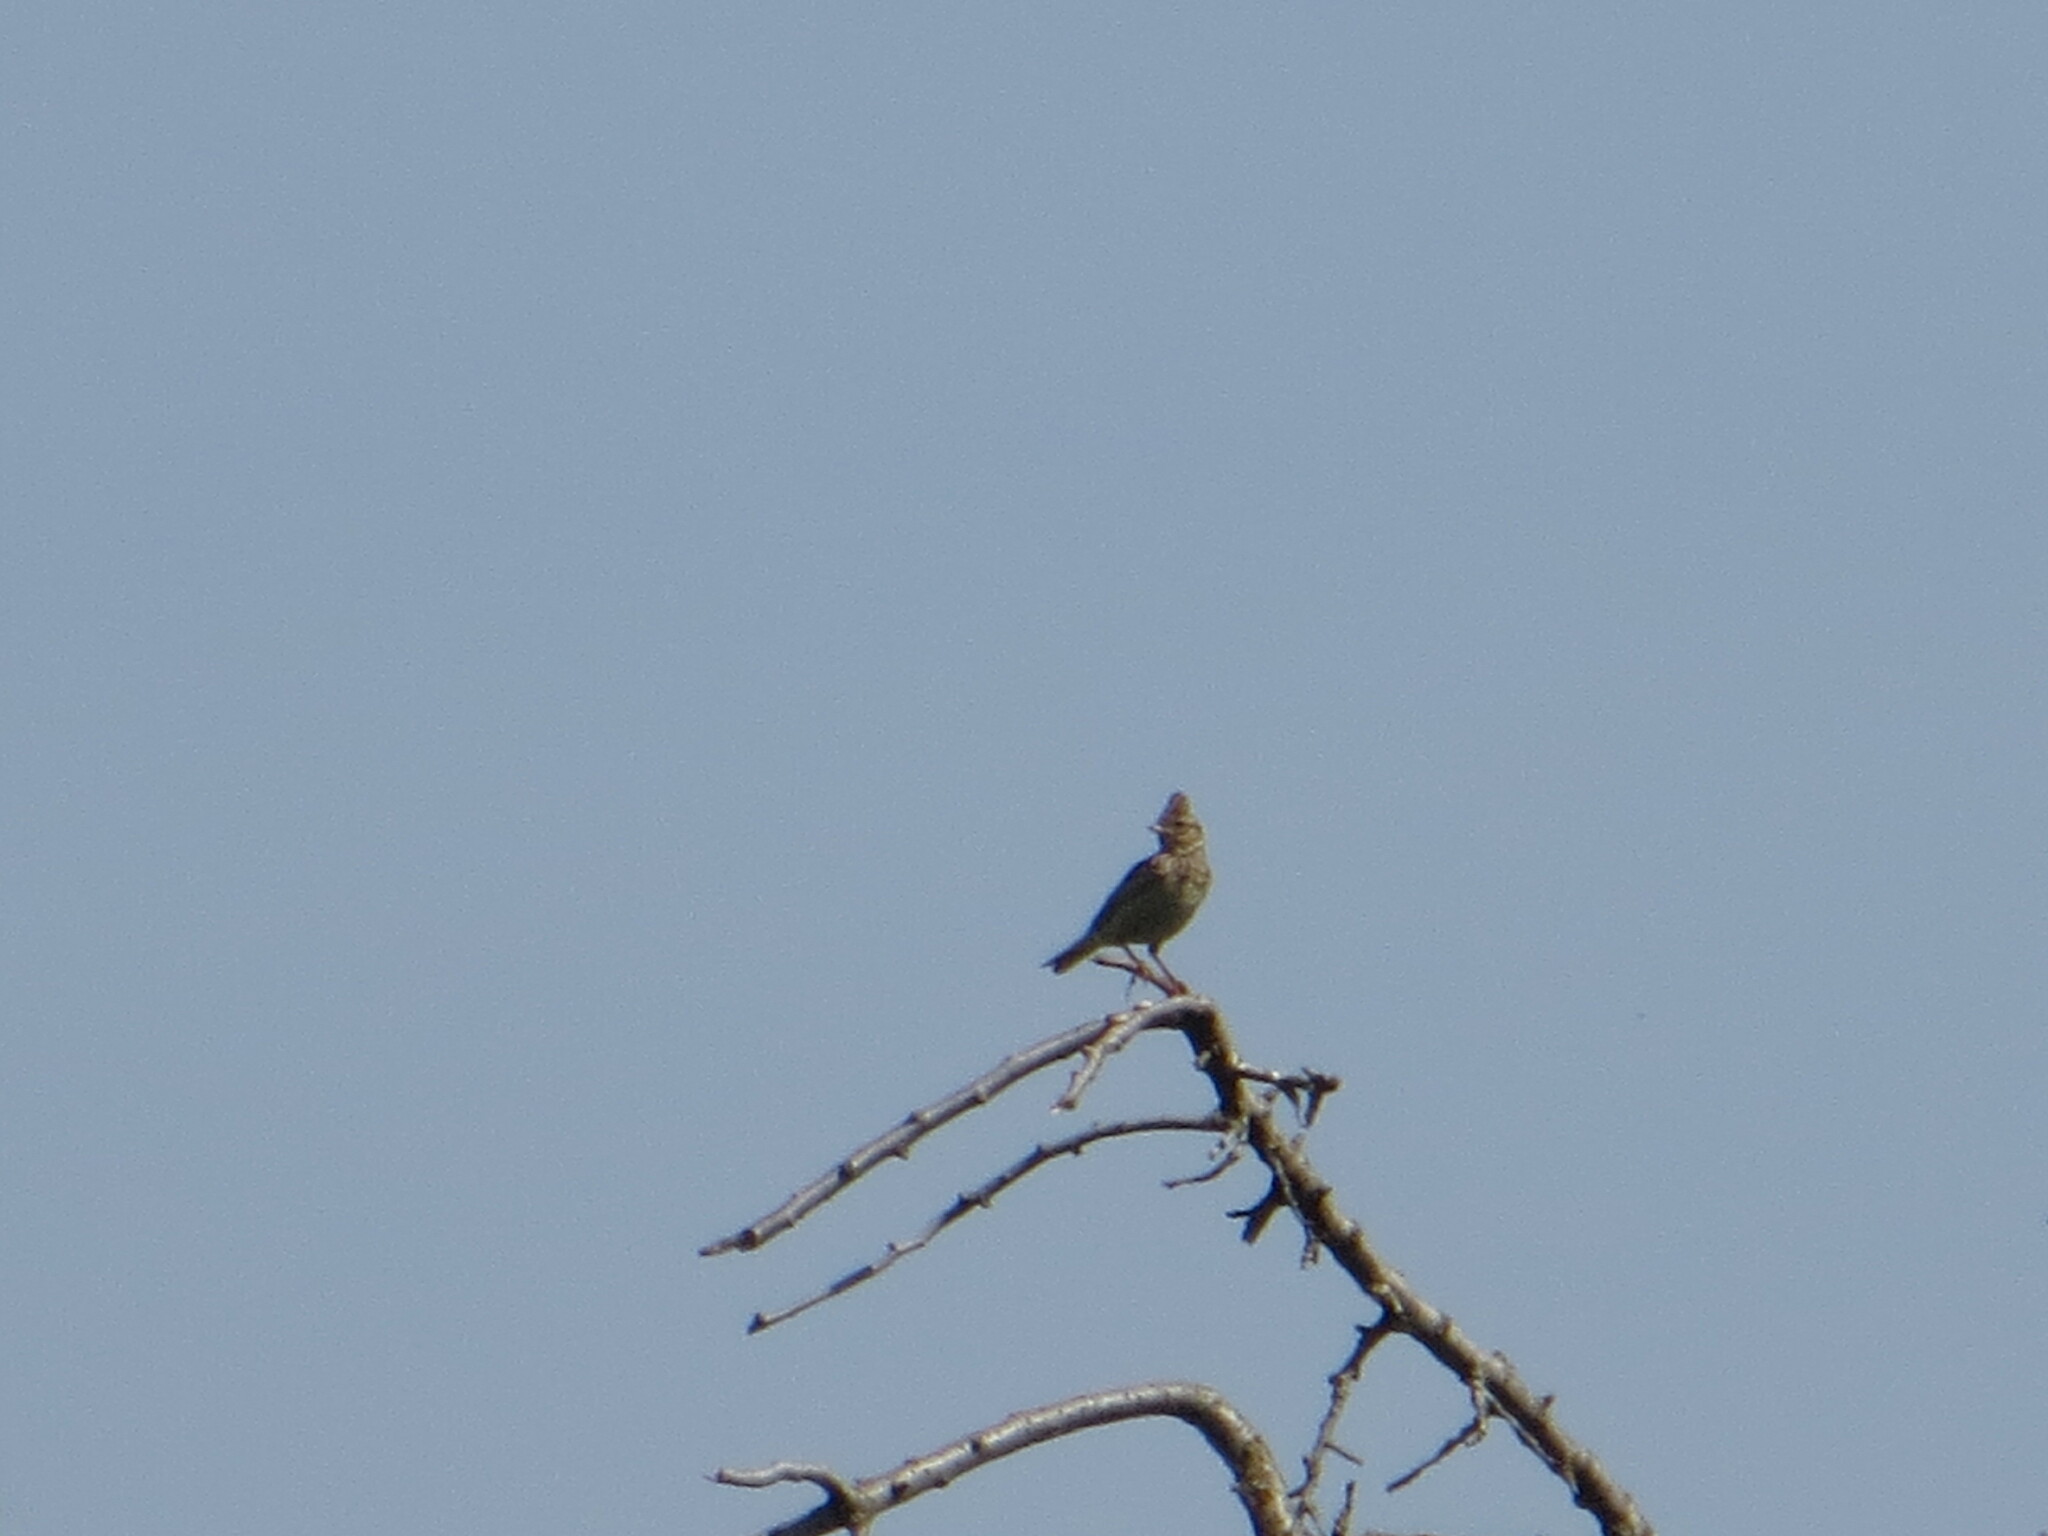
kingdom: Animalia
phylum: Chordata
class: Aves
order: Passeriformes
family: Alaudidae
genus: Galerida
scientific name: Galerida cristata
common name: Crested lark
